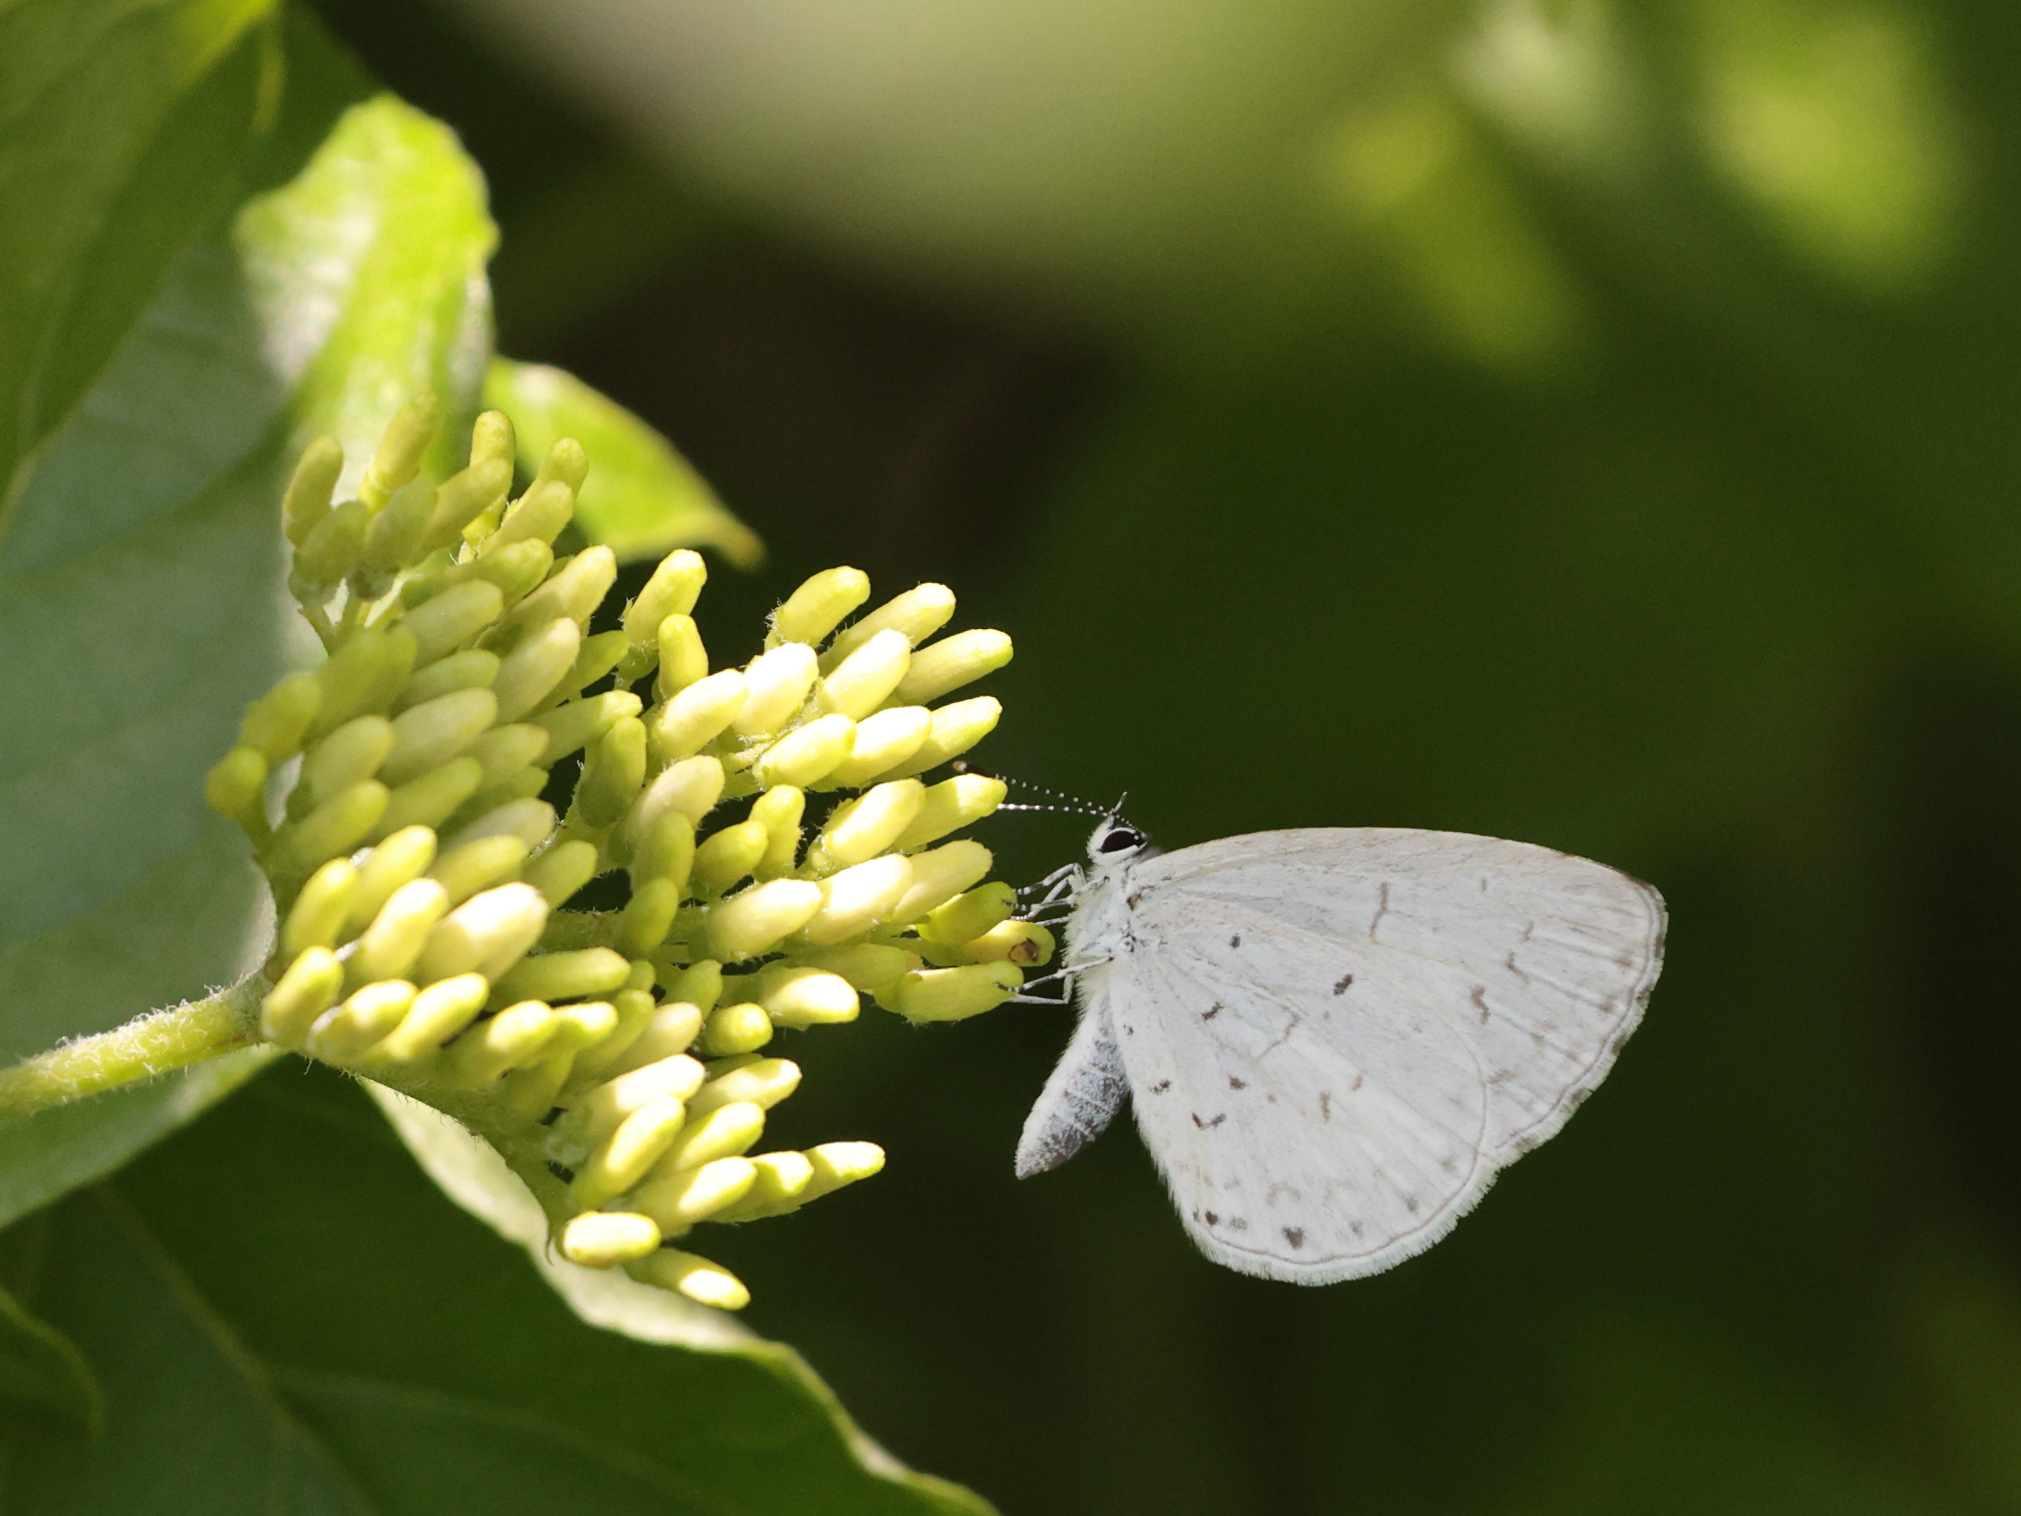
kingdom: Animalia
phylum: Arthropoda
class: Insecta
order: Lepidoptera
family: Lycaenidae
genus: Cyaniris
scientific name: Cyaniris neglecta
